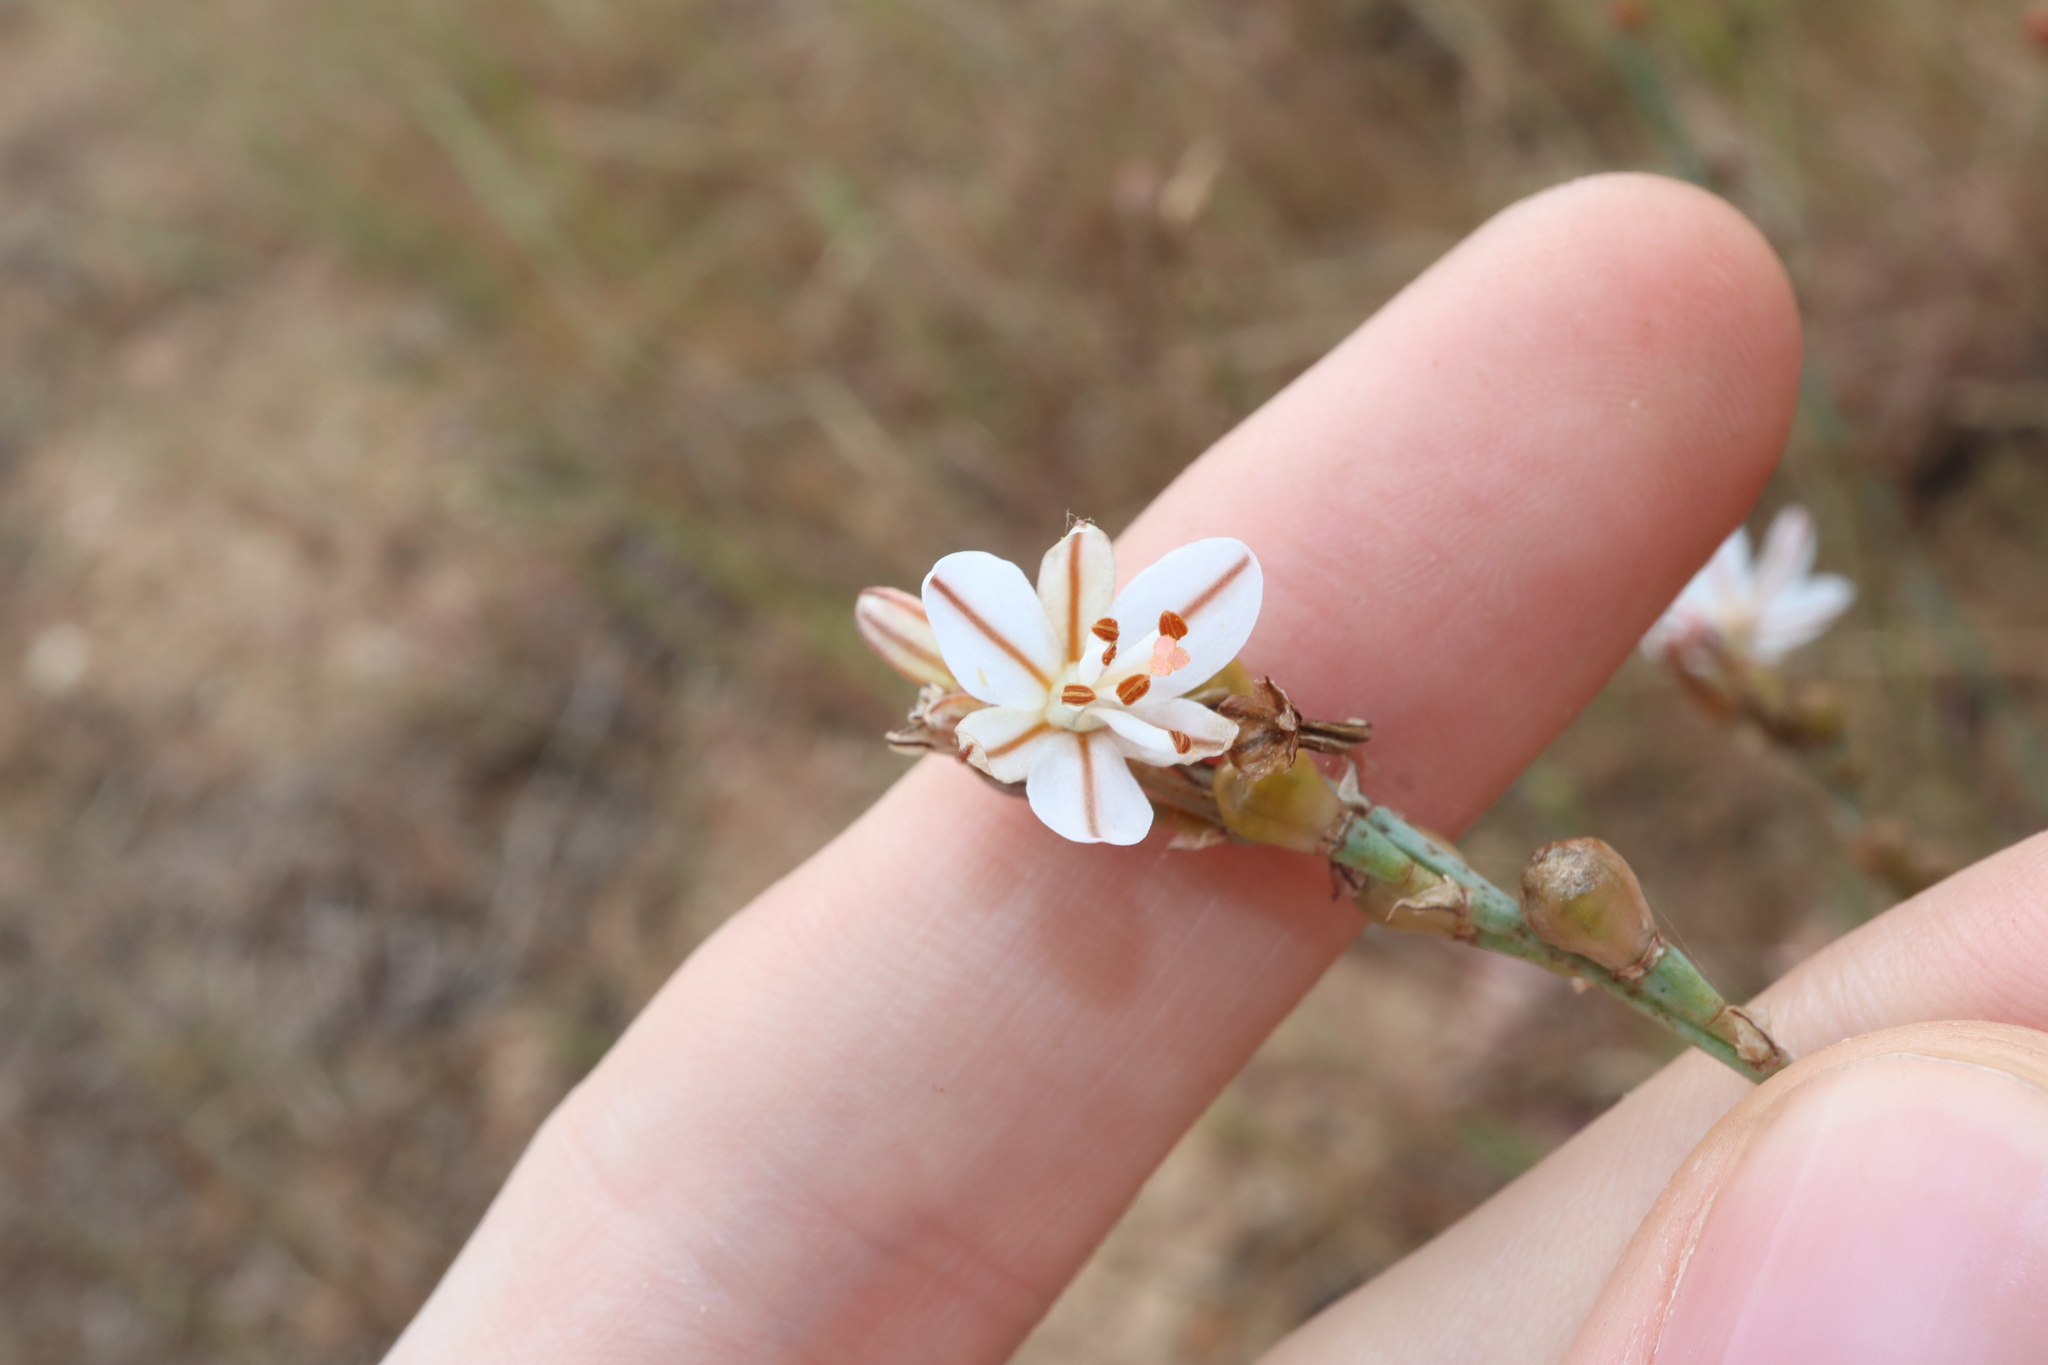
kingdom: Plantae
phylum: Tracheophyta
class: Liliopsida
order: Asparagales
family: Asphodelaceae
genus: Asphodelus
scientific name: Asphodelus fistulosus
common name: Onionweed
